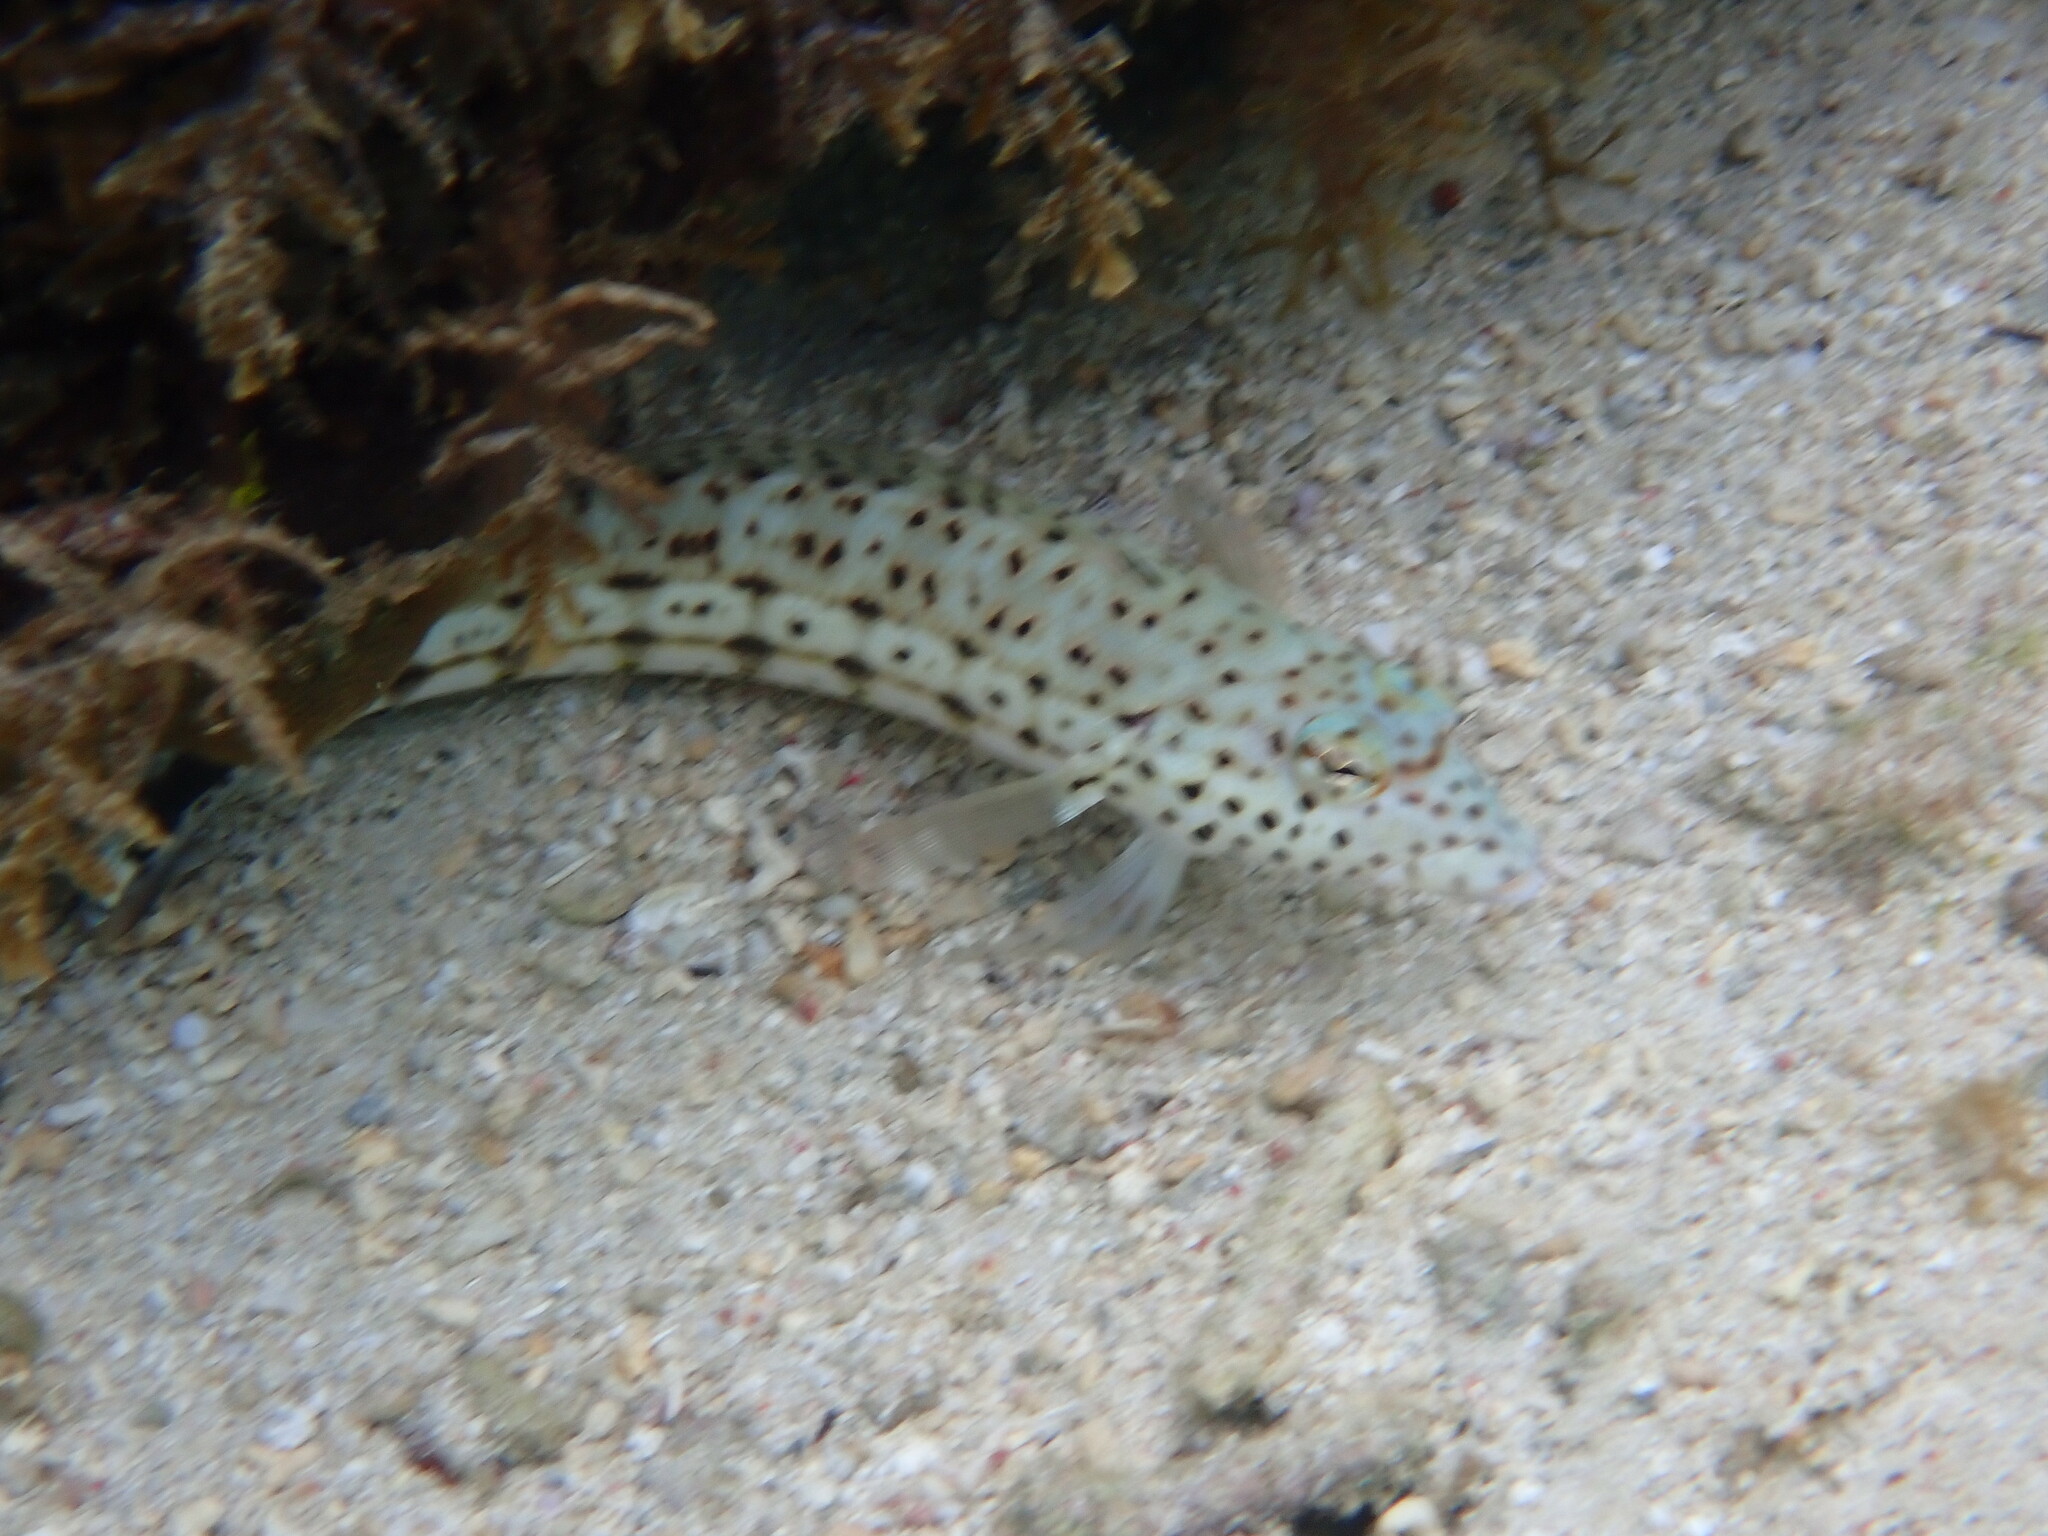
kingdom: Animalia
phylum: Chordata
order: Perciformes
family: Pinguipedidae
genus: Parapercis
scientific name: Parapercis xanthogramma
